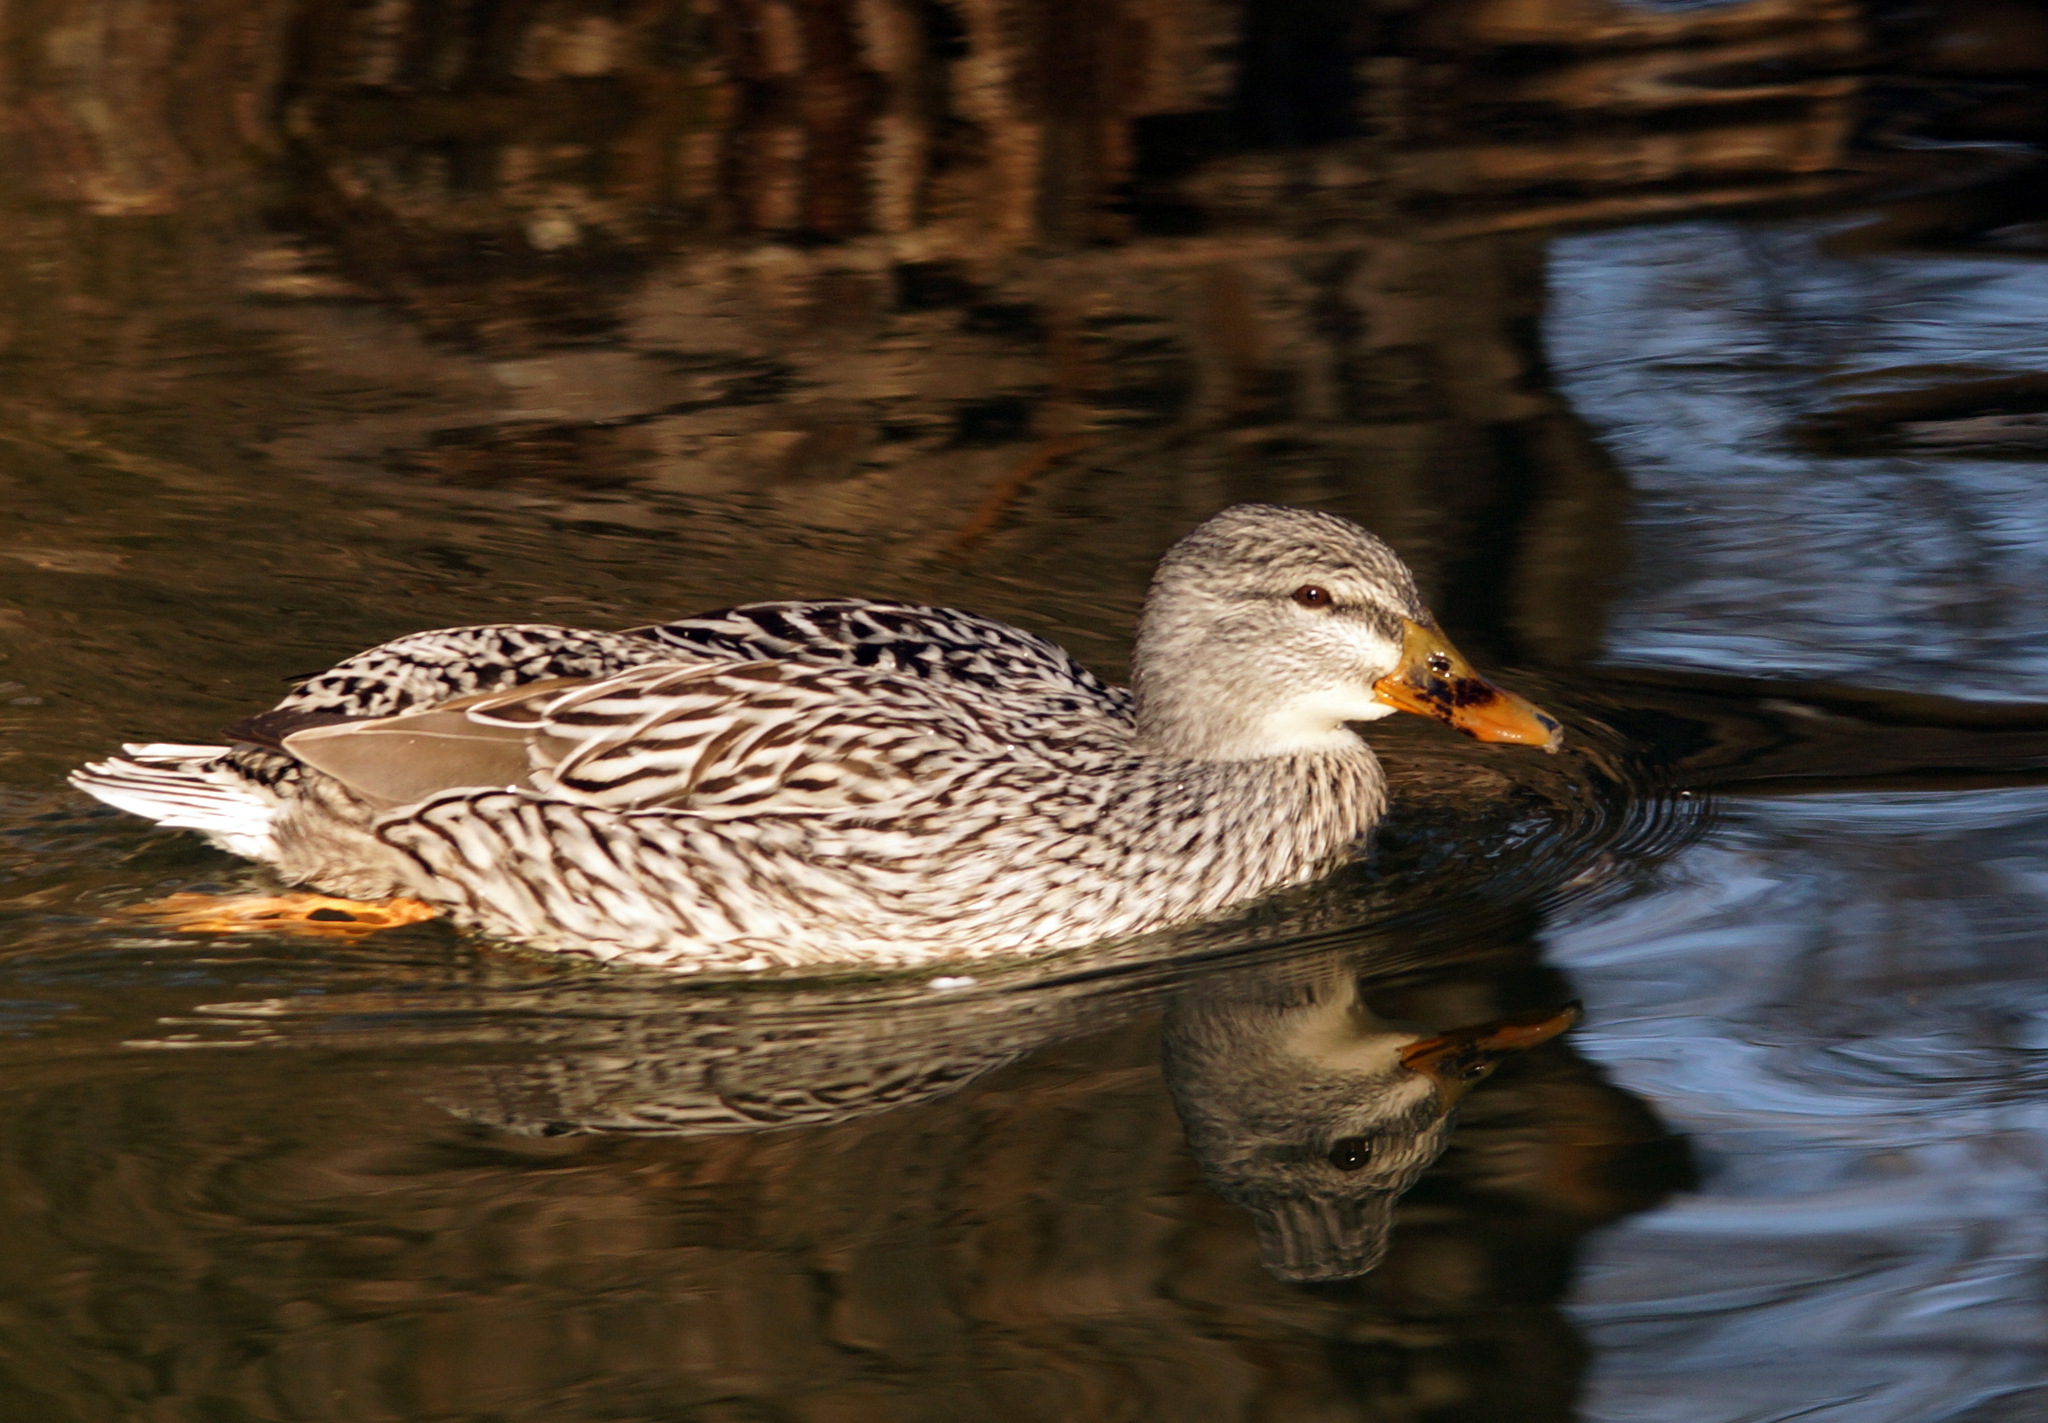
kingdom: Animalia
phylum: Chordata
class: Aves
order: Anseriformes
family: Anatidae
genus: Anas
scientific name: Anas platyrhynchos
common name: Mallard
